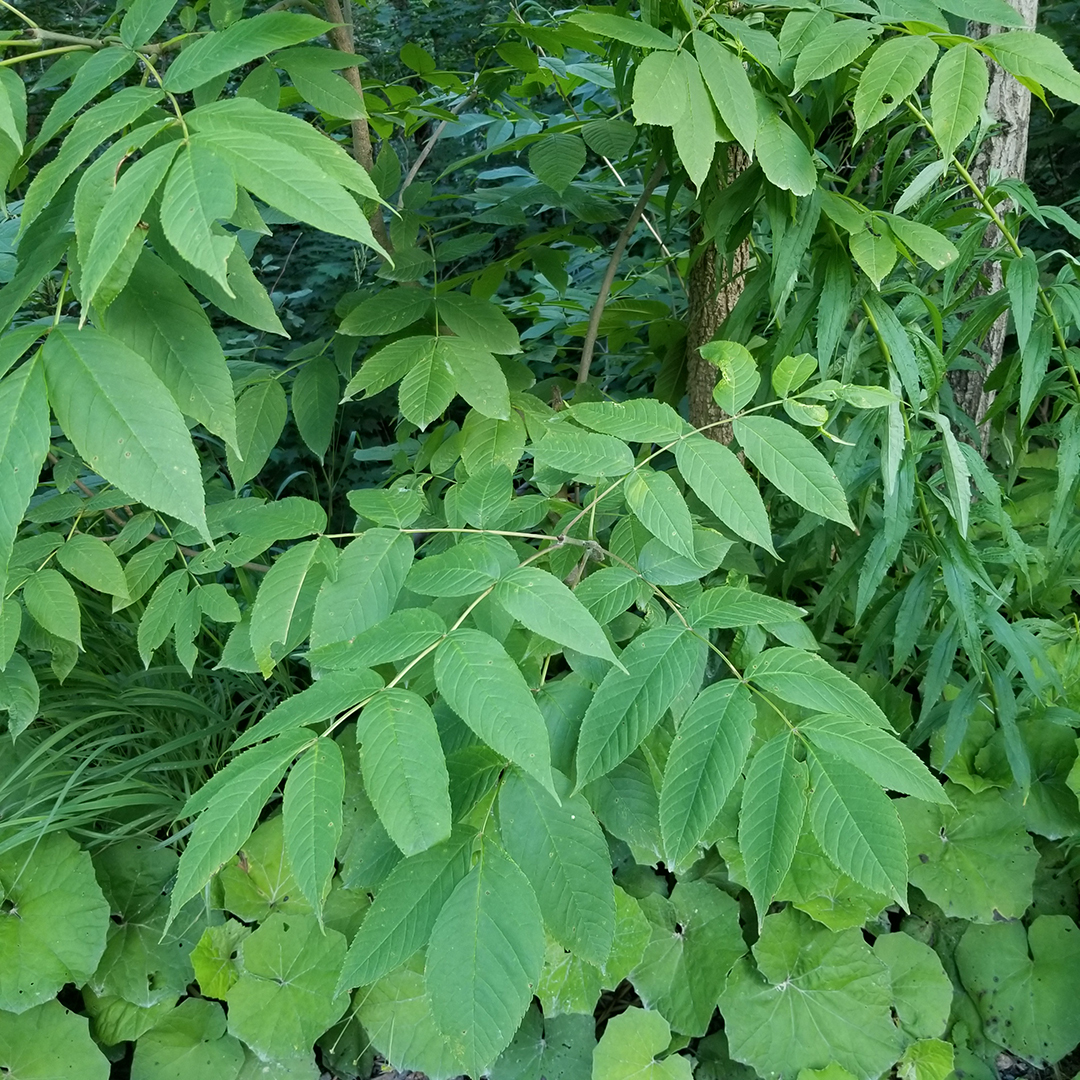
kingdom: Plantae
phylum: Tracheophyta
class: Magnoliopsida
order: Lamiales
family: Oleaceae
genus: Fraxinus
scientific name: Fraxinus nigra
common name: Black ash
